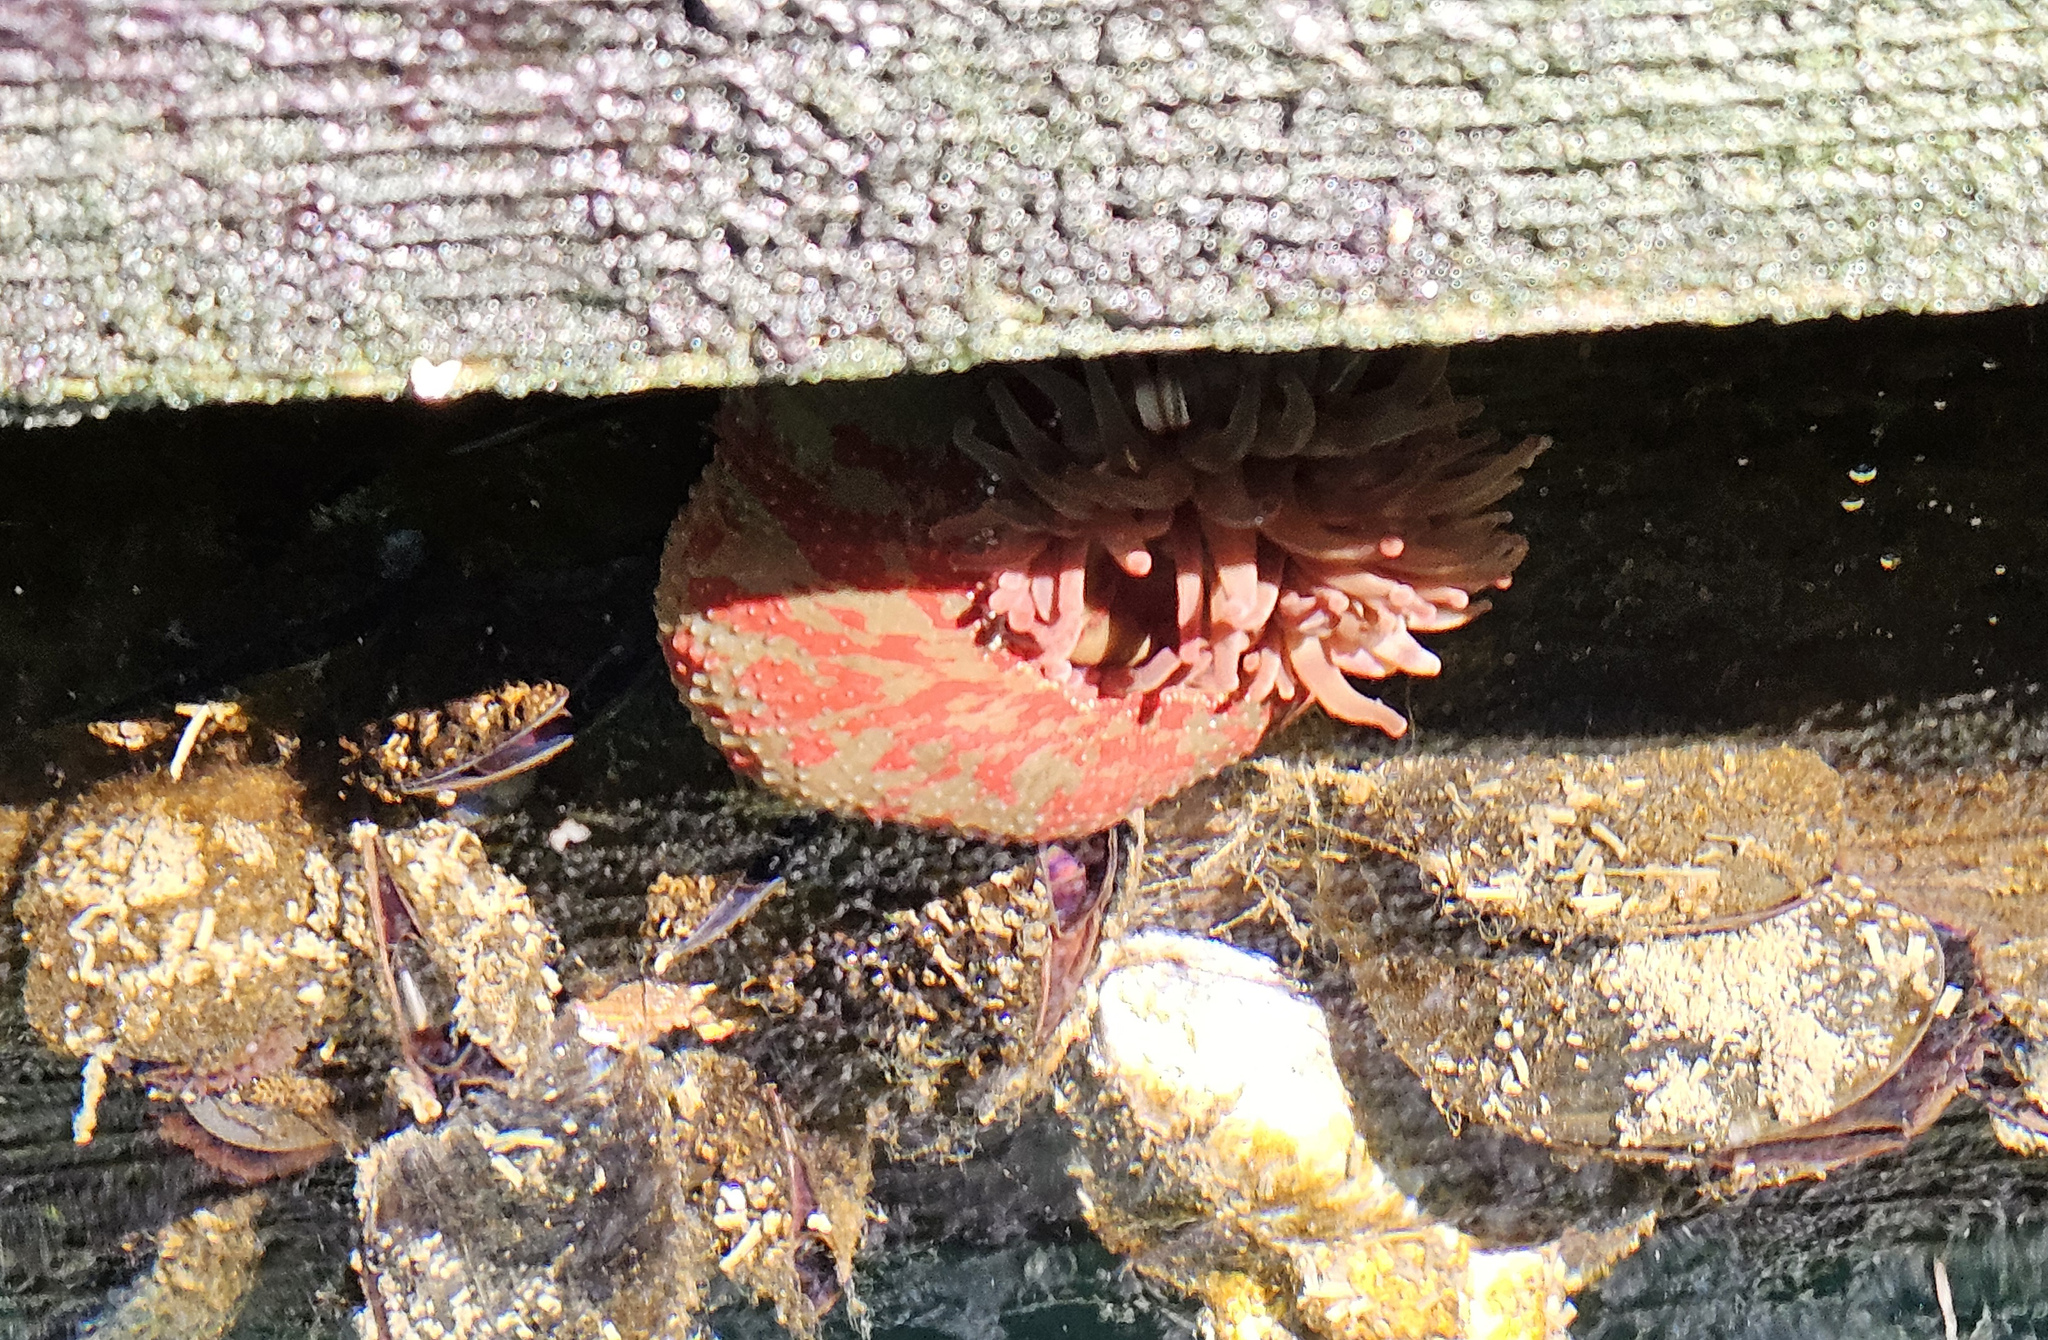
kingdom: Animalia
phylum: Cnidaria
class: Anthozoa
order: Actiniaria
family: Actiniidae
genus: Urticina
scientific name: Urticina grebelnyi
